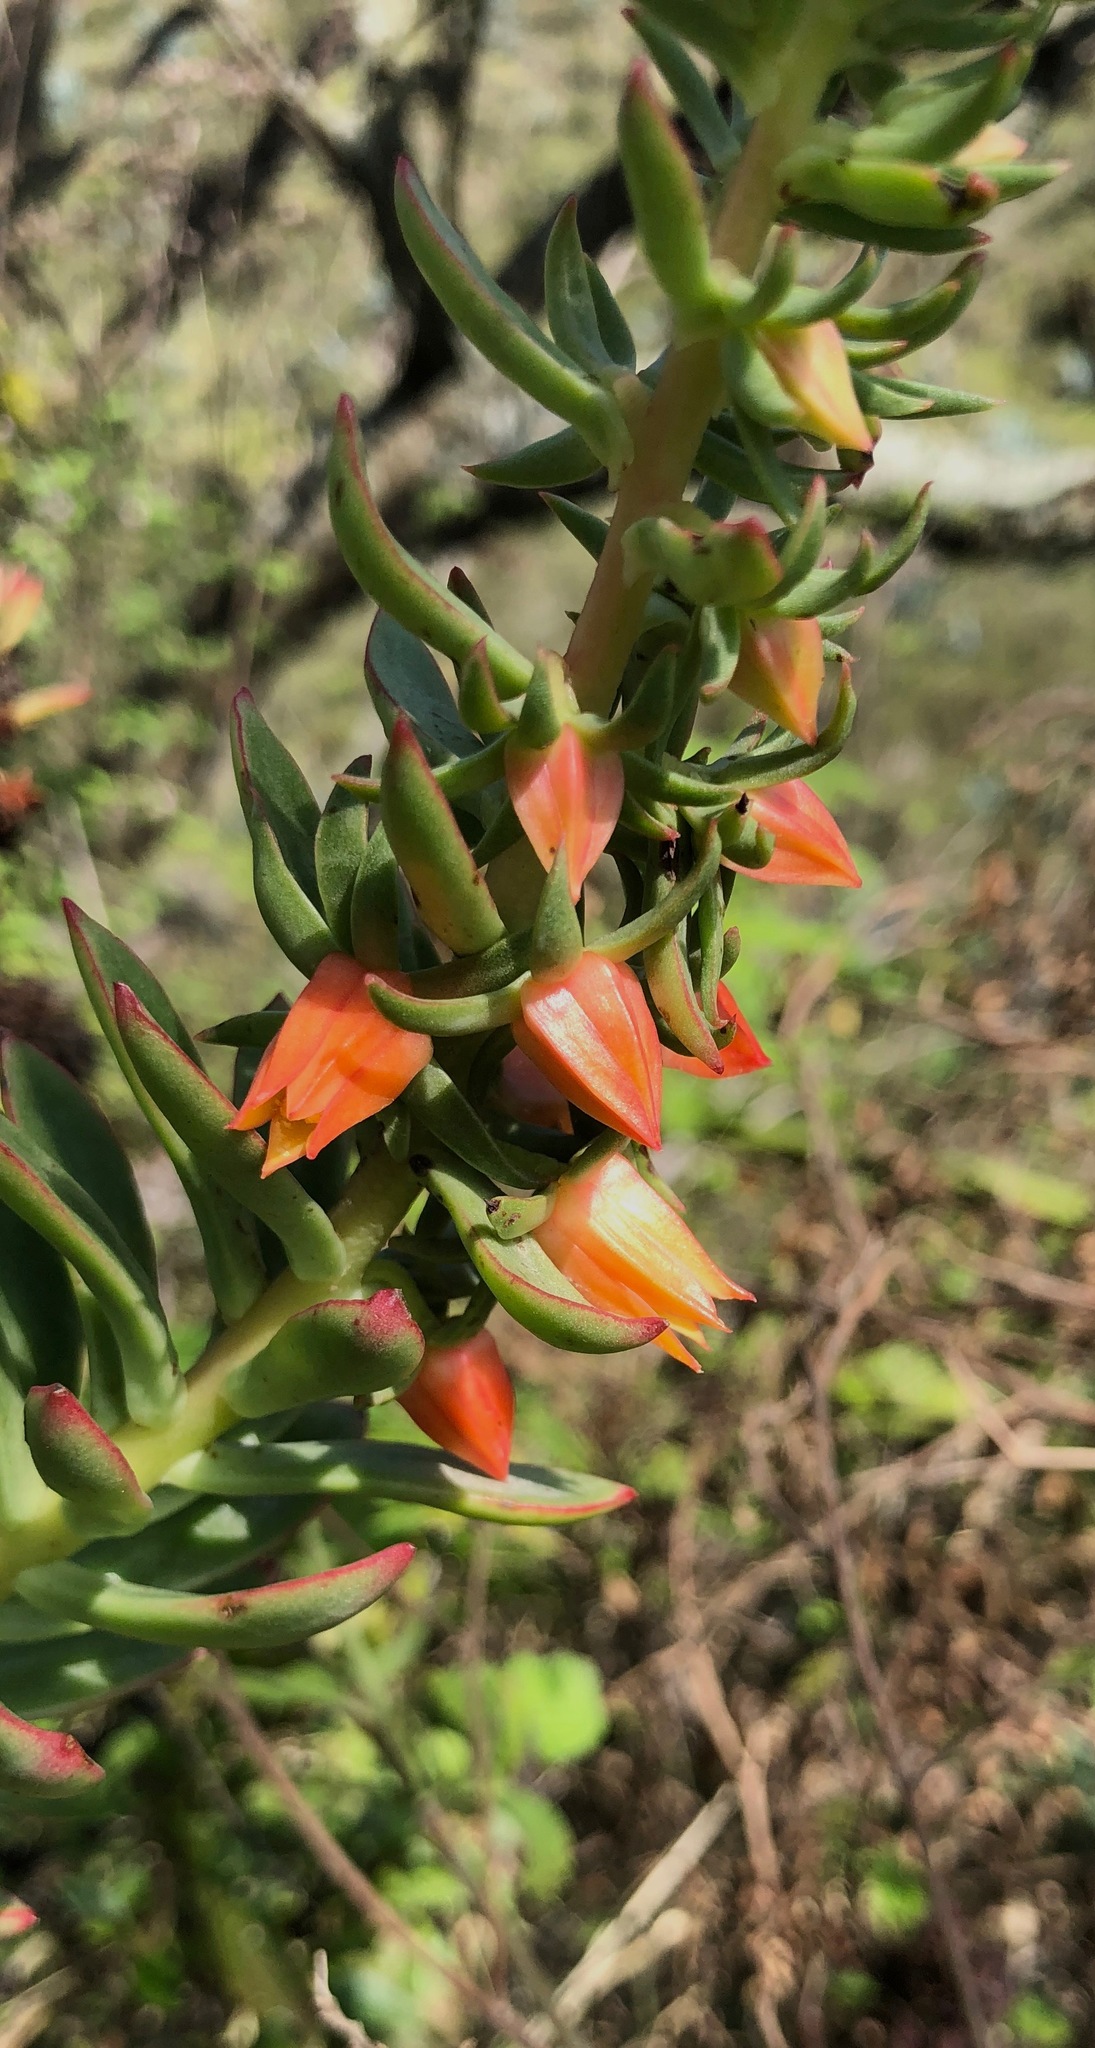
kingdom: Plantae
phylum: Tracheophyta
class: Magnoliopsida
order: Saxifragales
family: Crassulaceae
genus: Echeveria
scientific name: Echeveria quitensis
